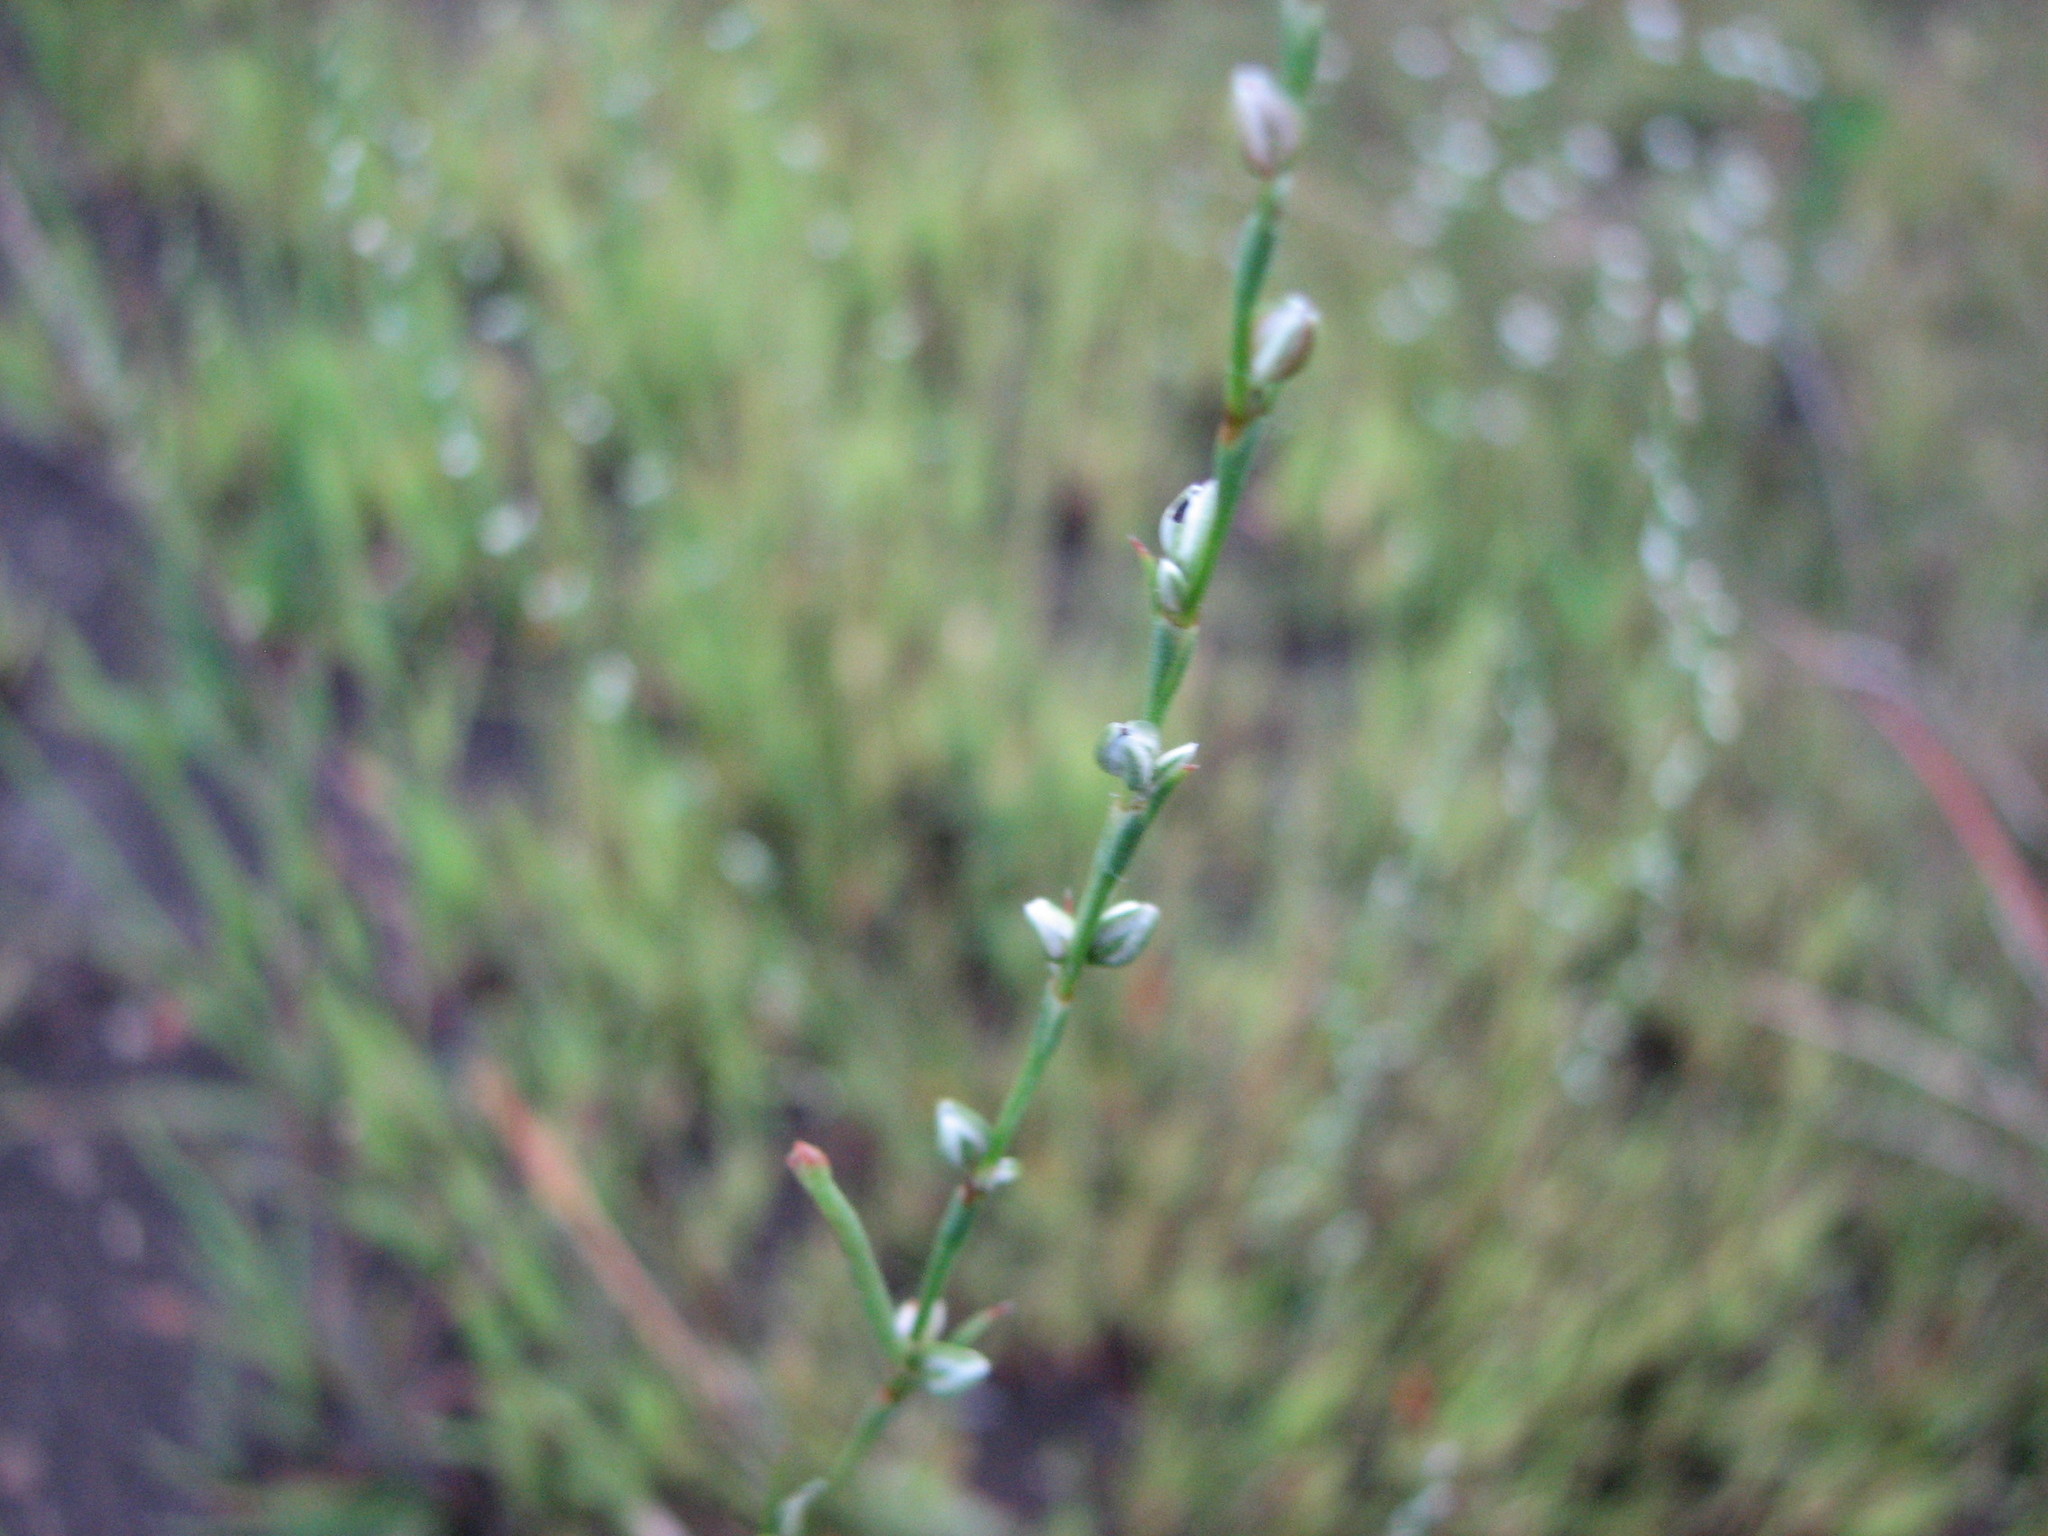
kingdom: Plantae
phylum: Tracheophyta
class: Magnoliopsida
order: Caryophyllales
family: Polygonaceae
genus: Polygonum
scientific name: Polygonum tenue
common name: Pleat-leaved knotweed
